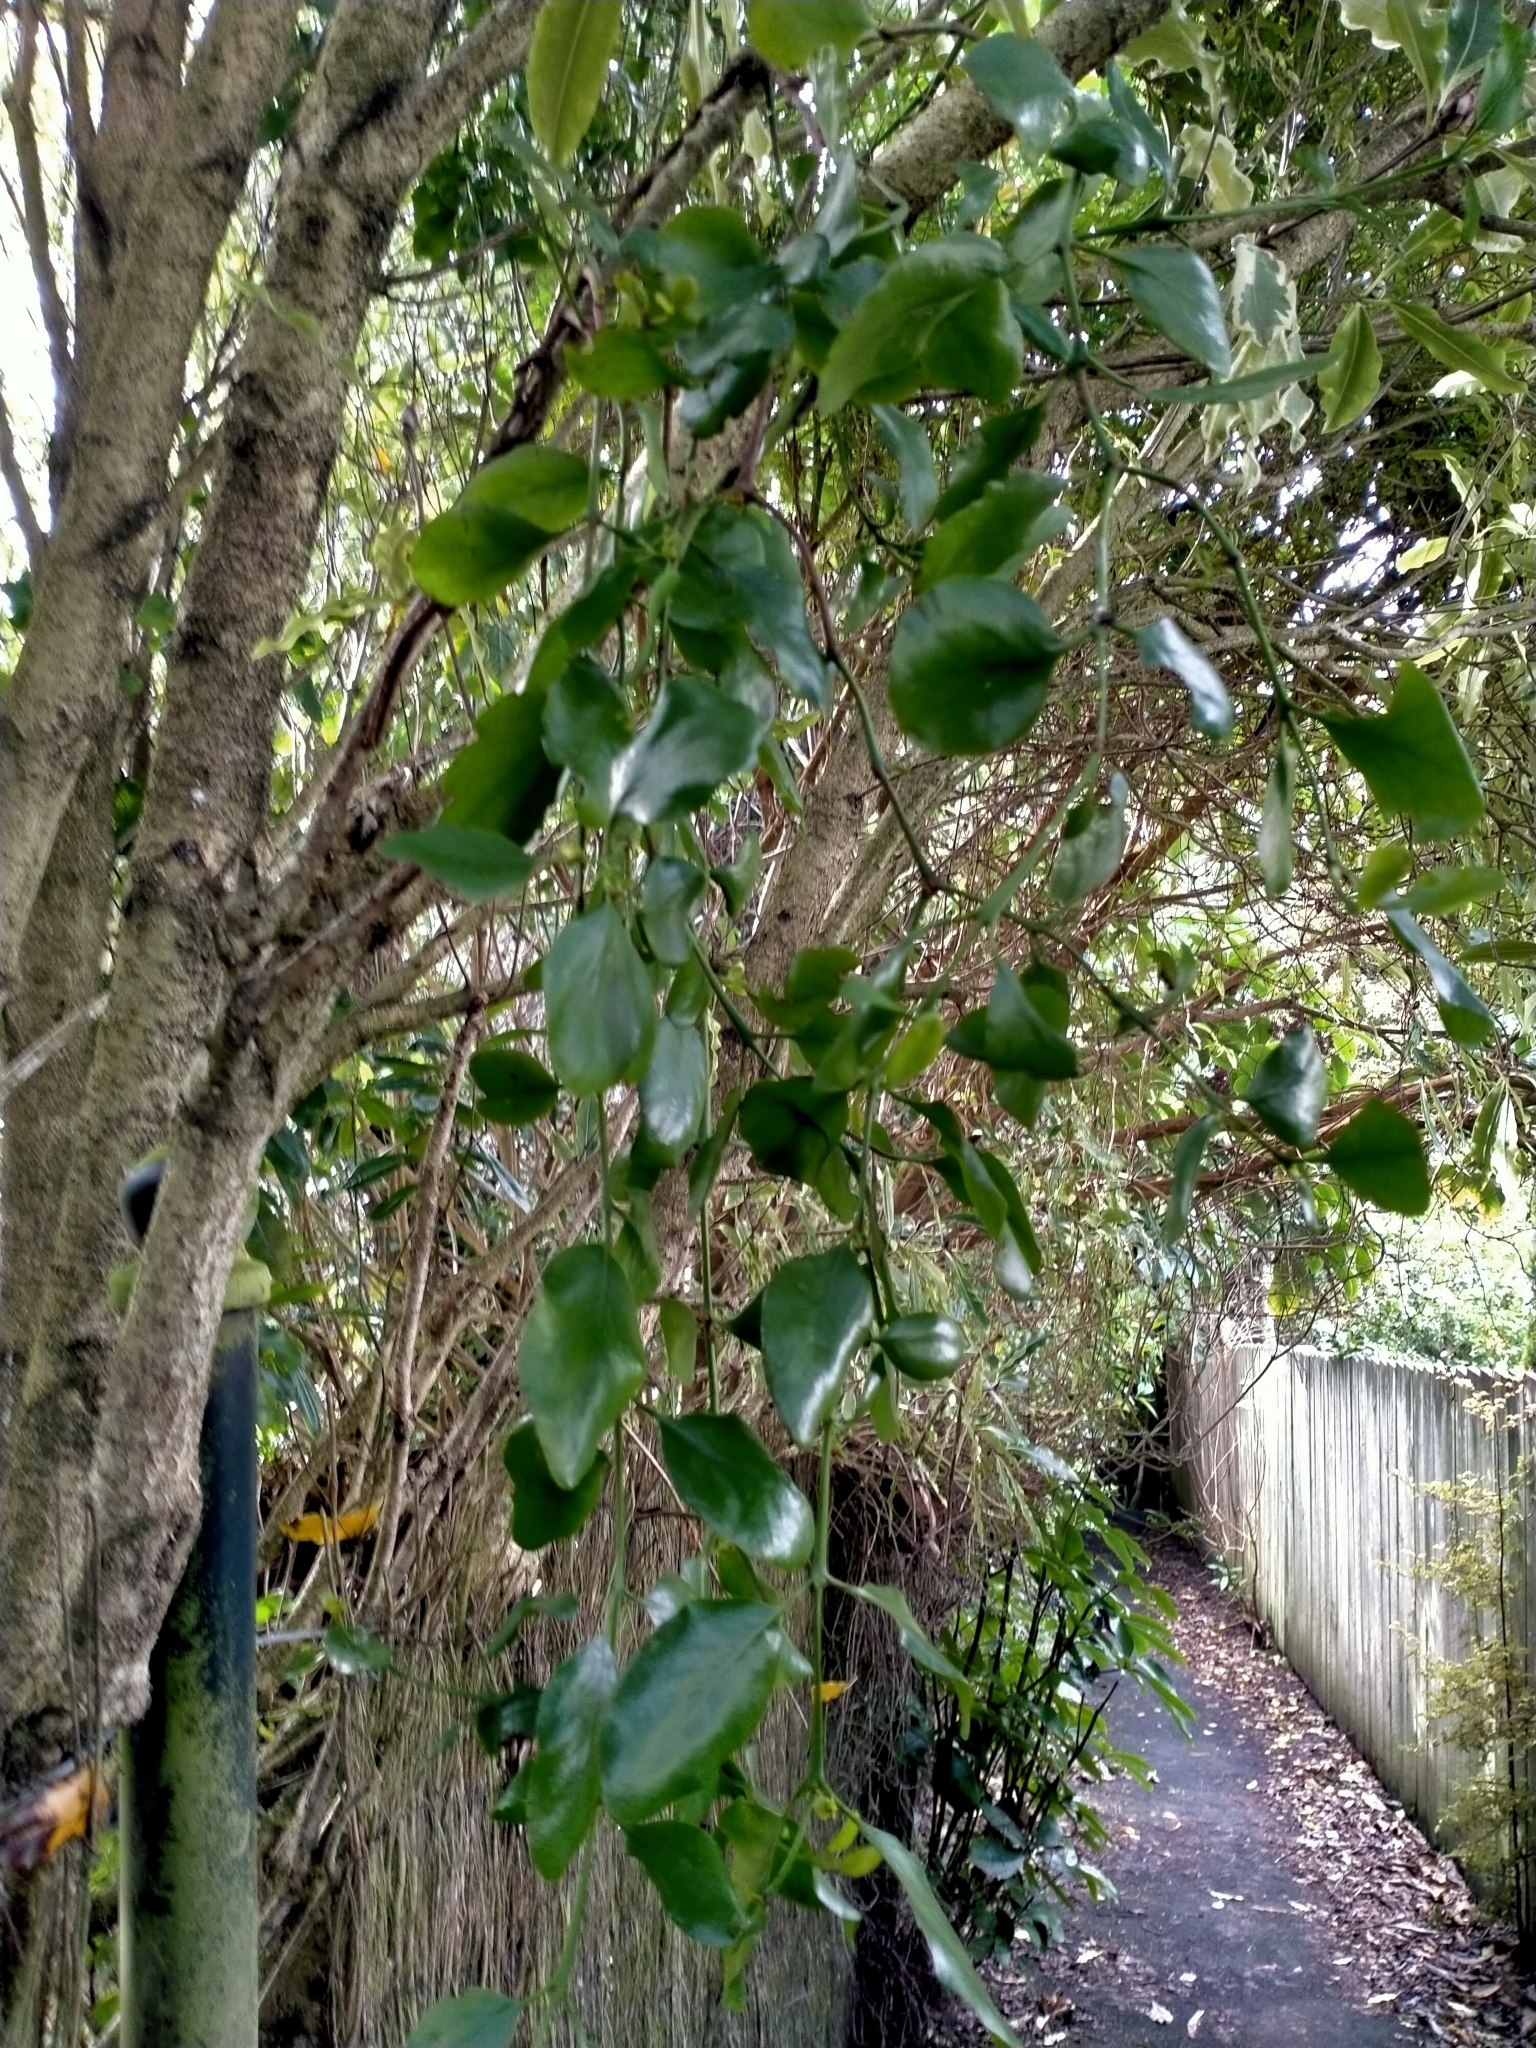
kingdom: Plantae
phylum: Tracheophyta
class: Magnoliopsida
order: Santalales
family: Loranthaceae
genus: Ileostylus
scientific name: Ileostylus micranthus
